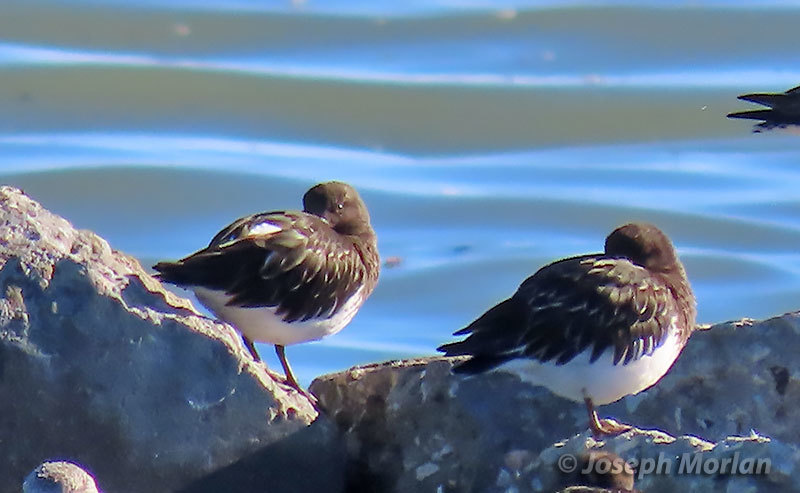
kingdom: Animalia
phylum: Chordata
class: Aves
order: Charadriiformes
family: Scolopacidae
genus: Arenaria
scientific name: Arenaria melanocephala
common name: Black turnstone
